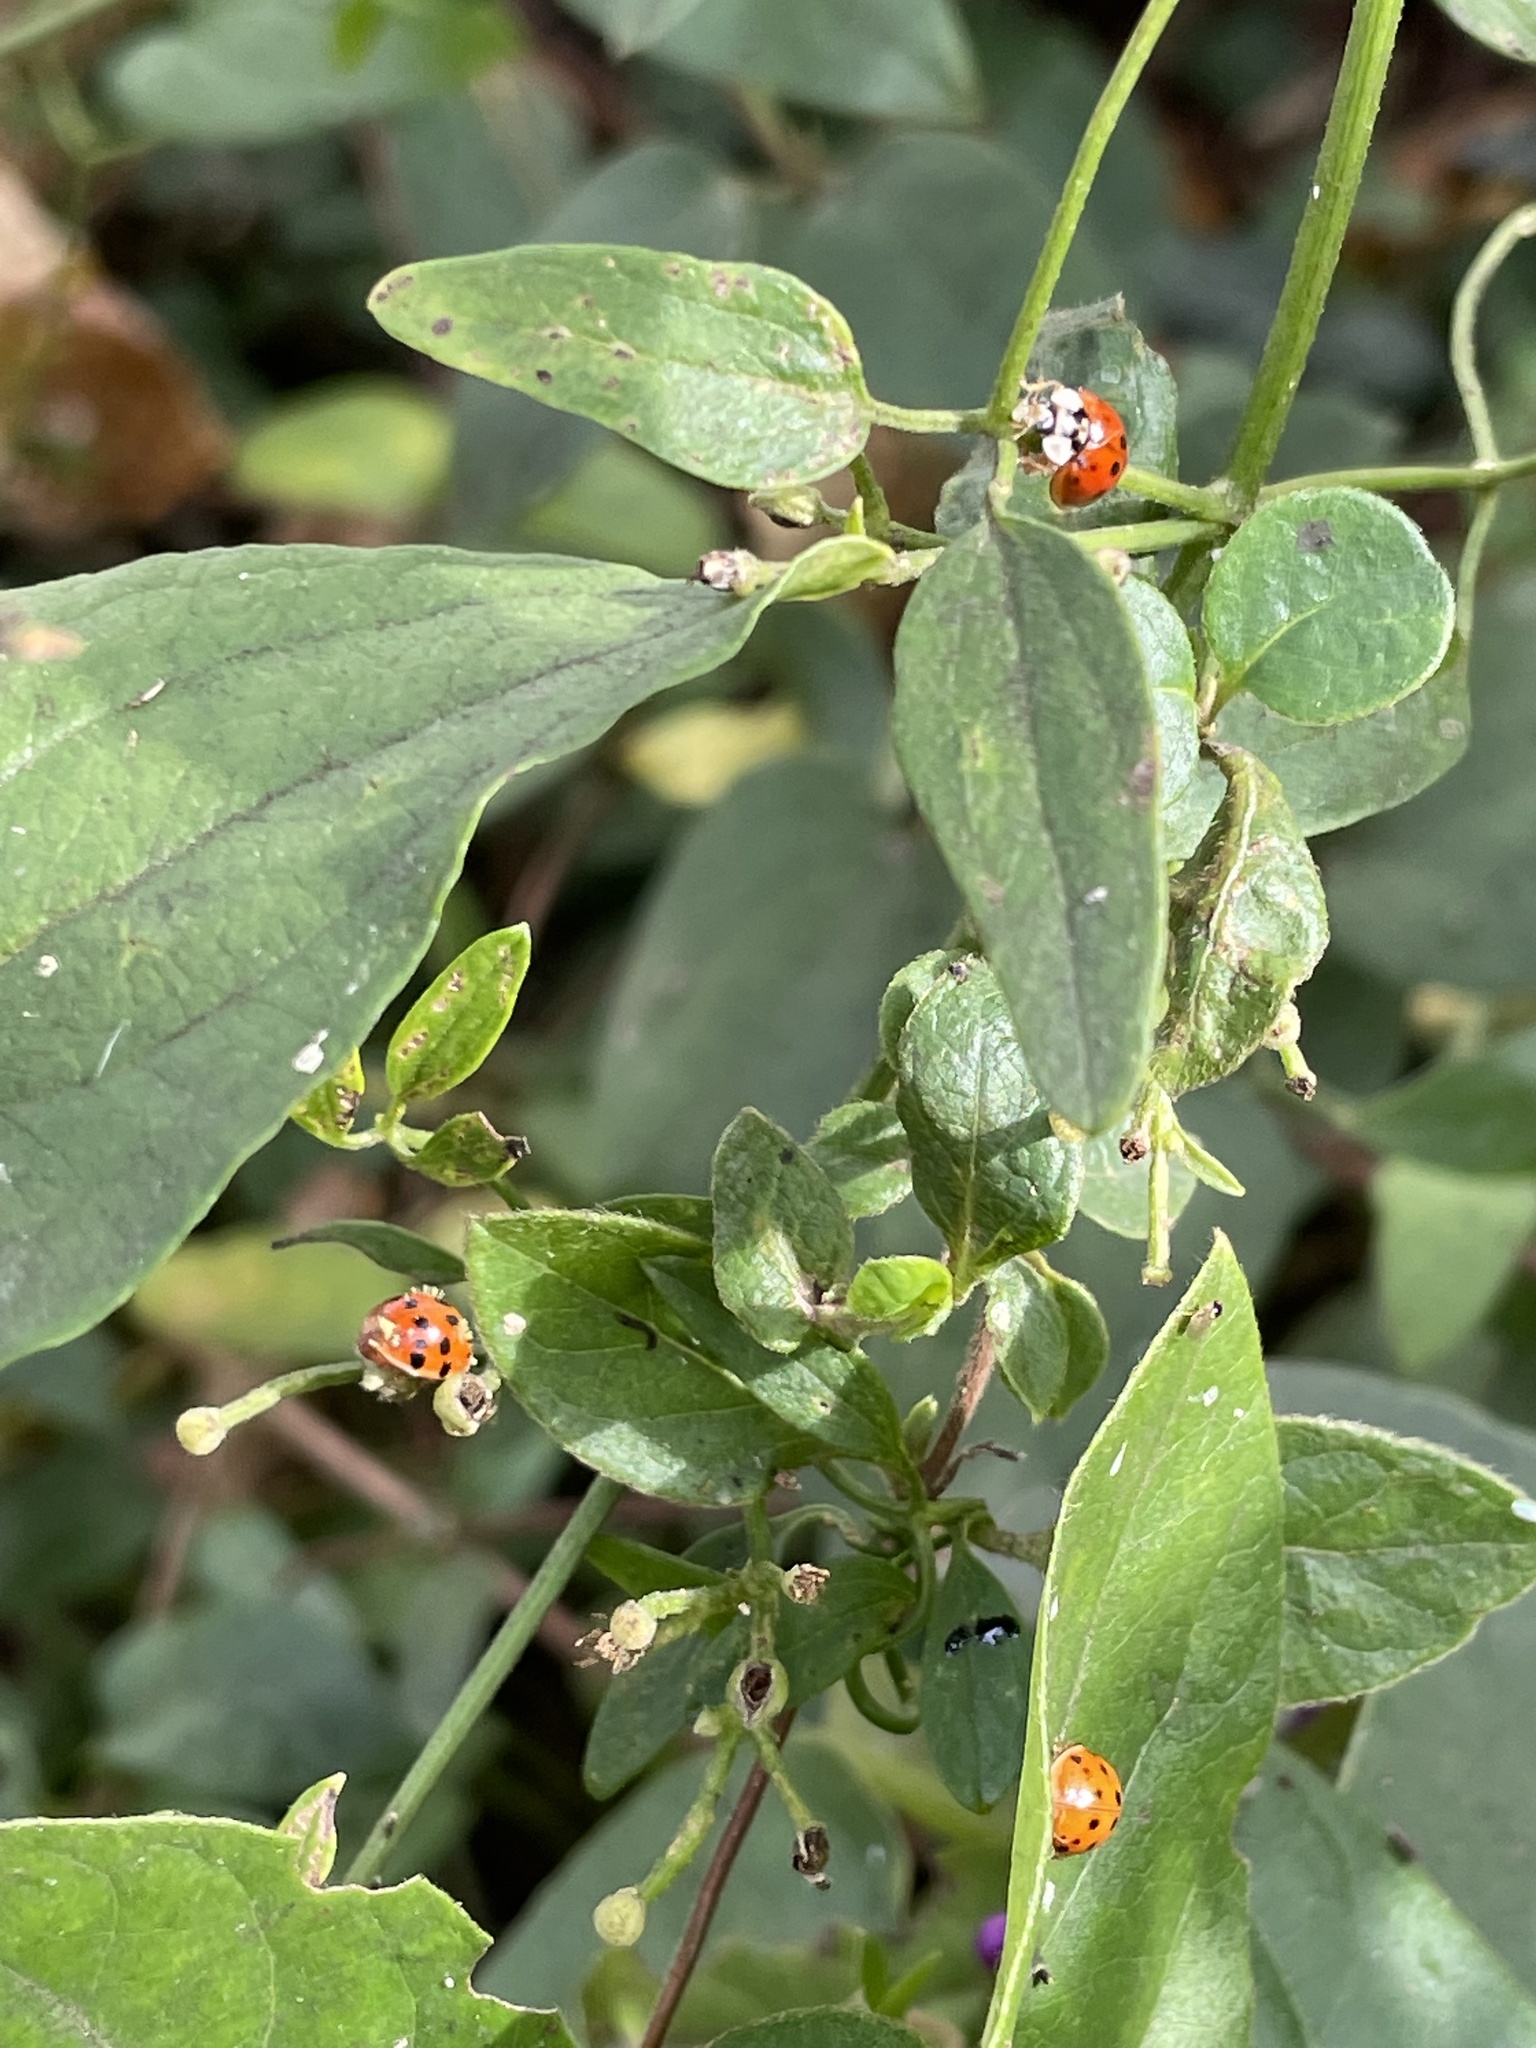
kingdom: Animalia
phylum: Arthropoda
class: Insecta
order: Coleoptera
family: Coccinellidae
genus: Harmonia
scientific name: Harmonia axyridis
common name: Harlequin ladybird
